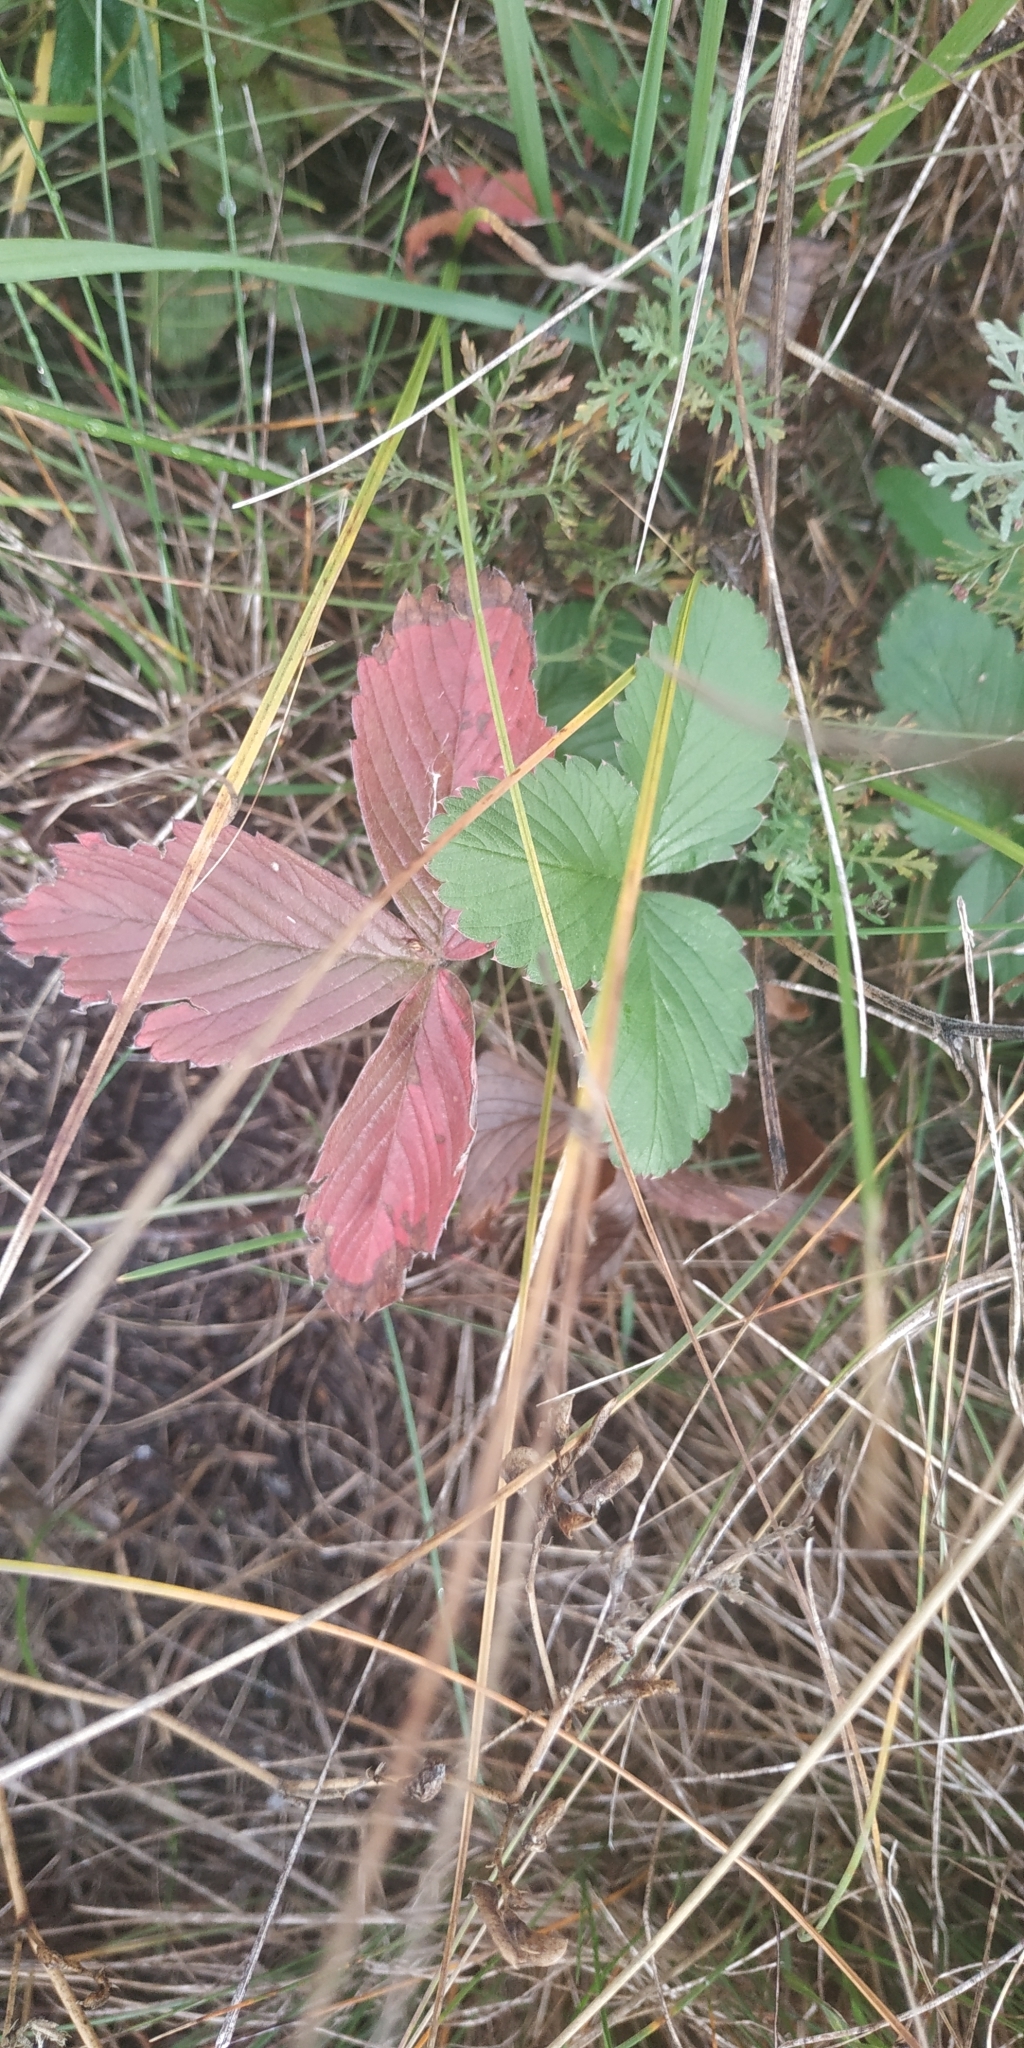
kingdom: Plantae
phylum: Tracheophyta
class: Magnoliopsida
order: Rosales
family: Rosaceae
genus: Fragaria
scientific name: Fragaria viridis
